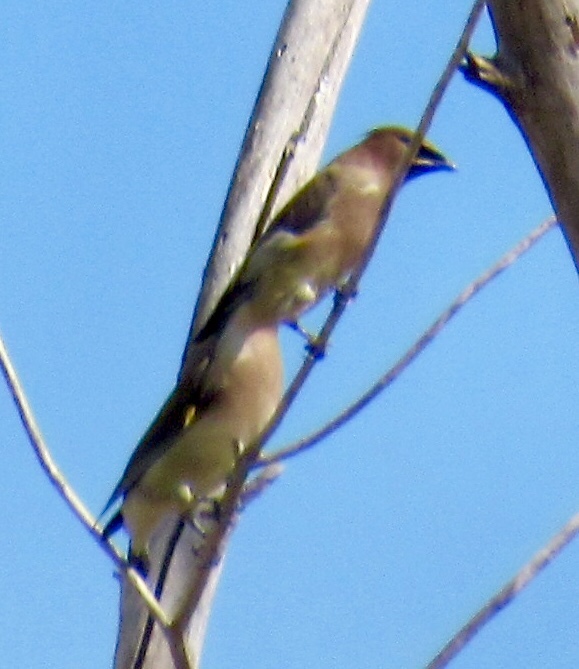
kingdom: Animalia
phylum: Chordata
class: Aves
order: Passeriformes
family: Bombycillidae
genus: Bombycilla
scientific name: Bombycilla cedrorum
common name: Cedar waxwing
